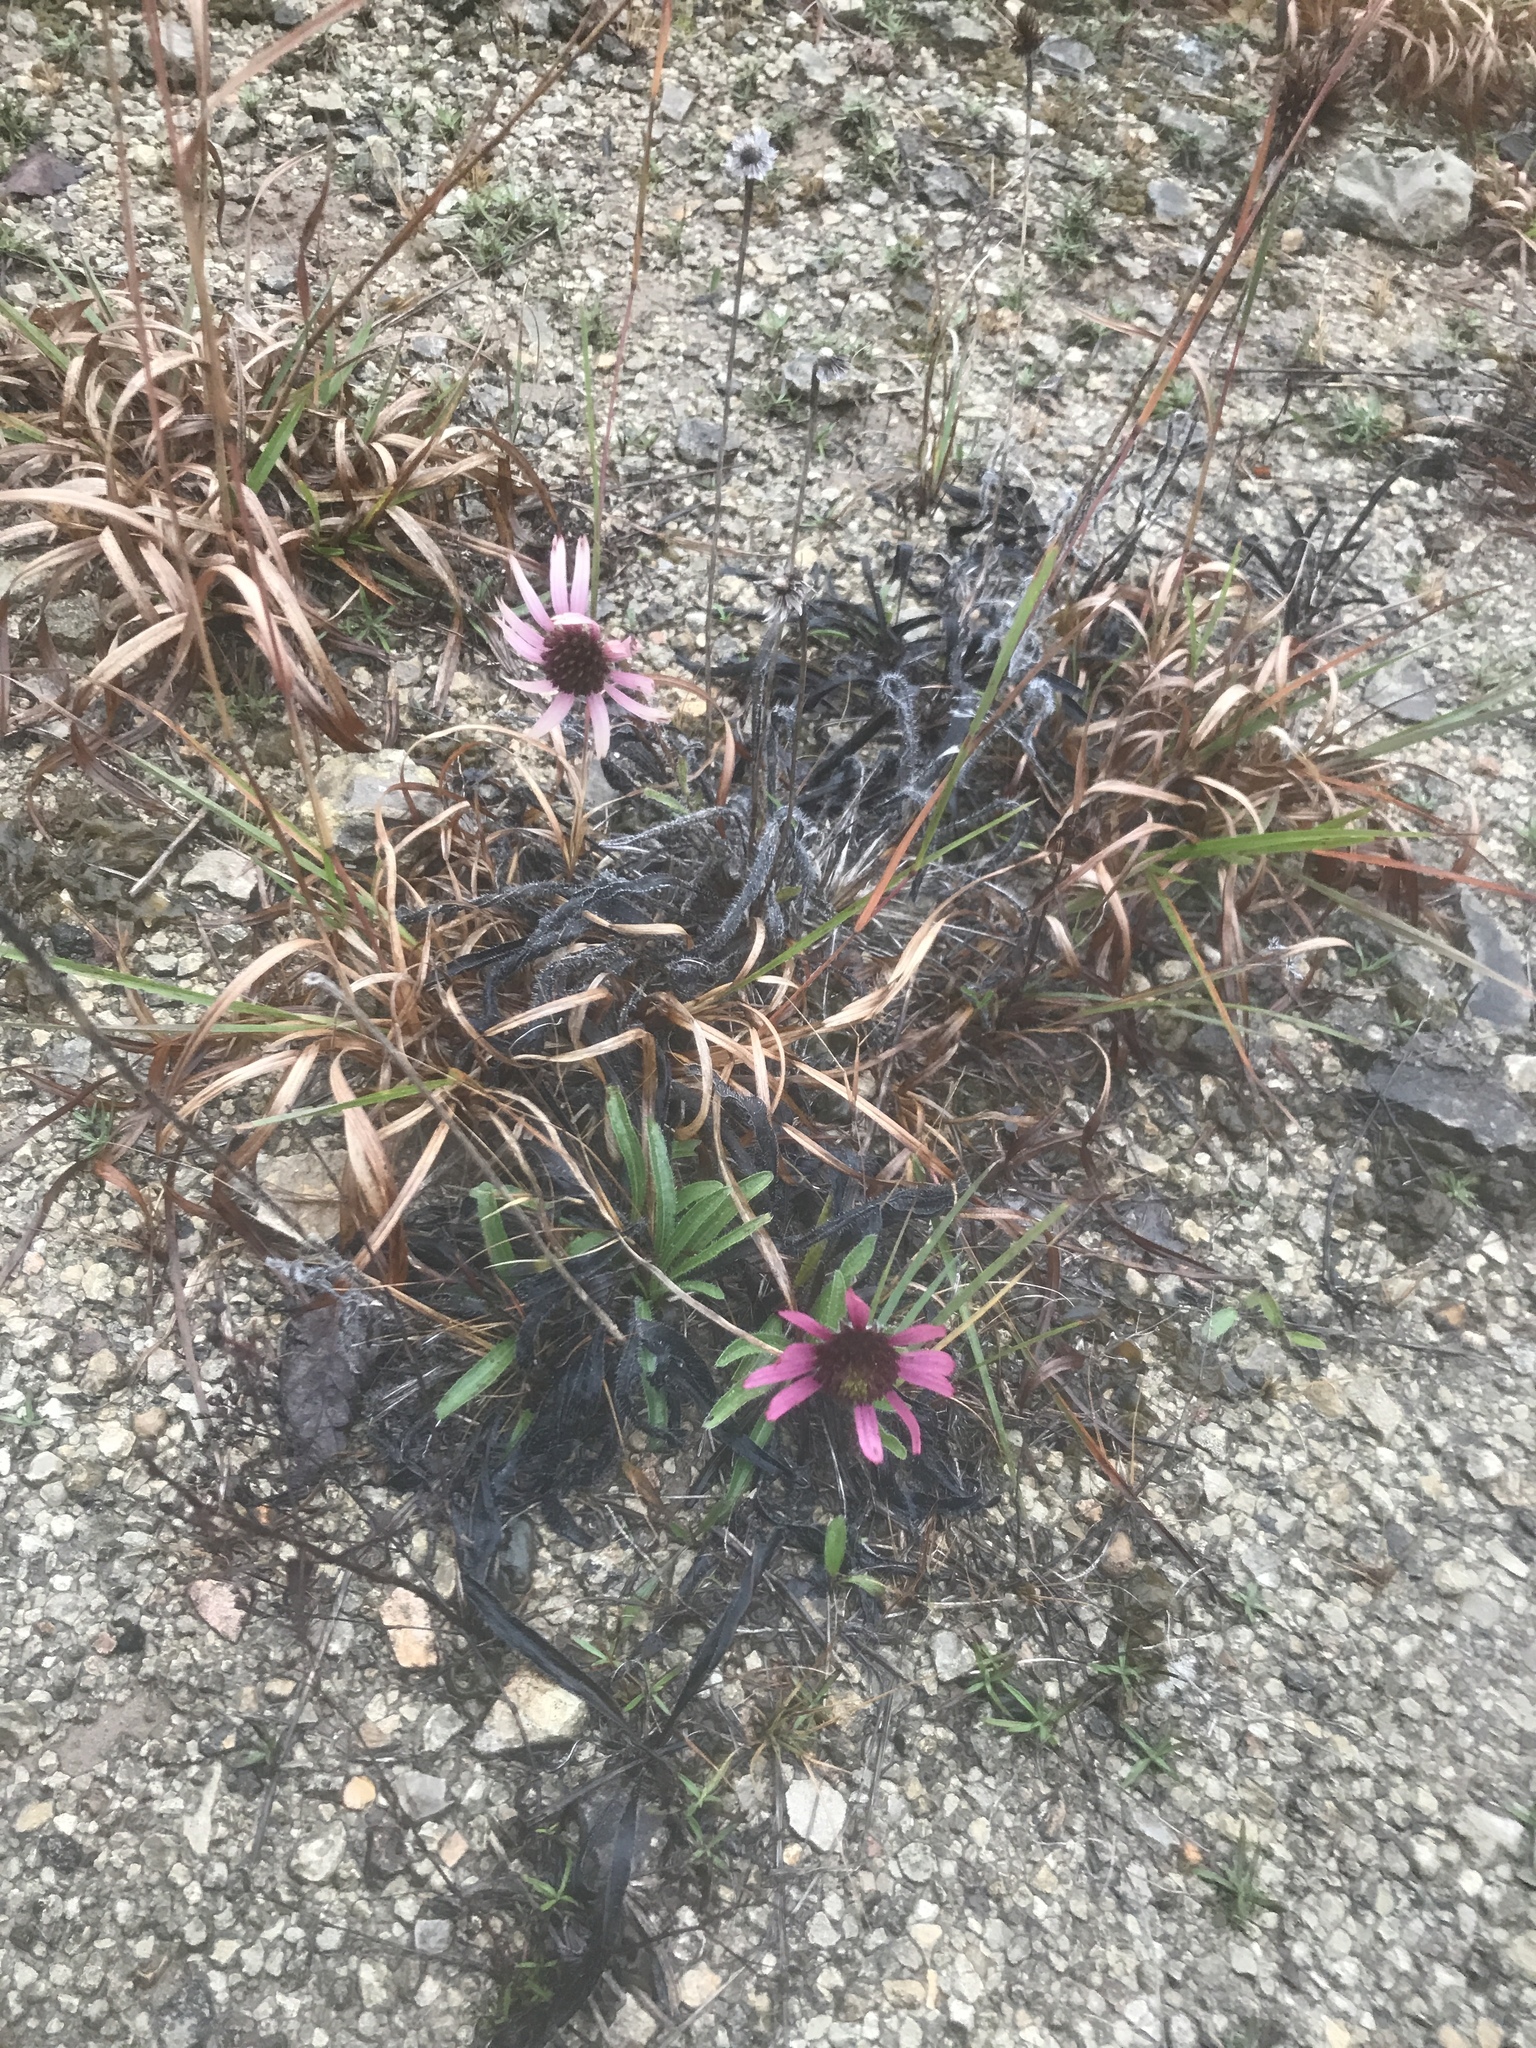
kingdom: Plantae
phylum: Tracheophyta
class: Magnoliopsida
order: Asterales
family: Asteraceae
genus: Echinacea
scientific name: Echinacea tennesseensis
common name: Tennessee purple-coneflower
